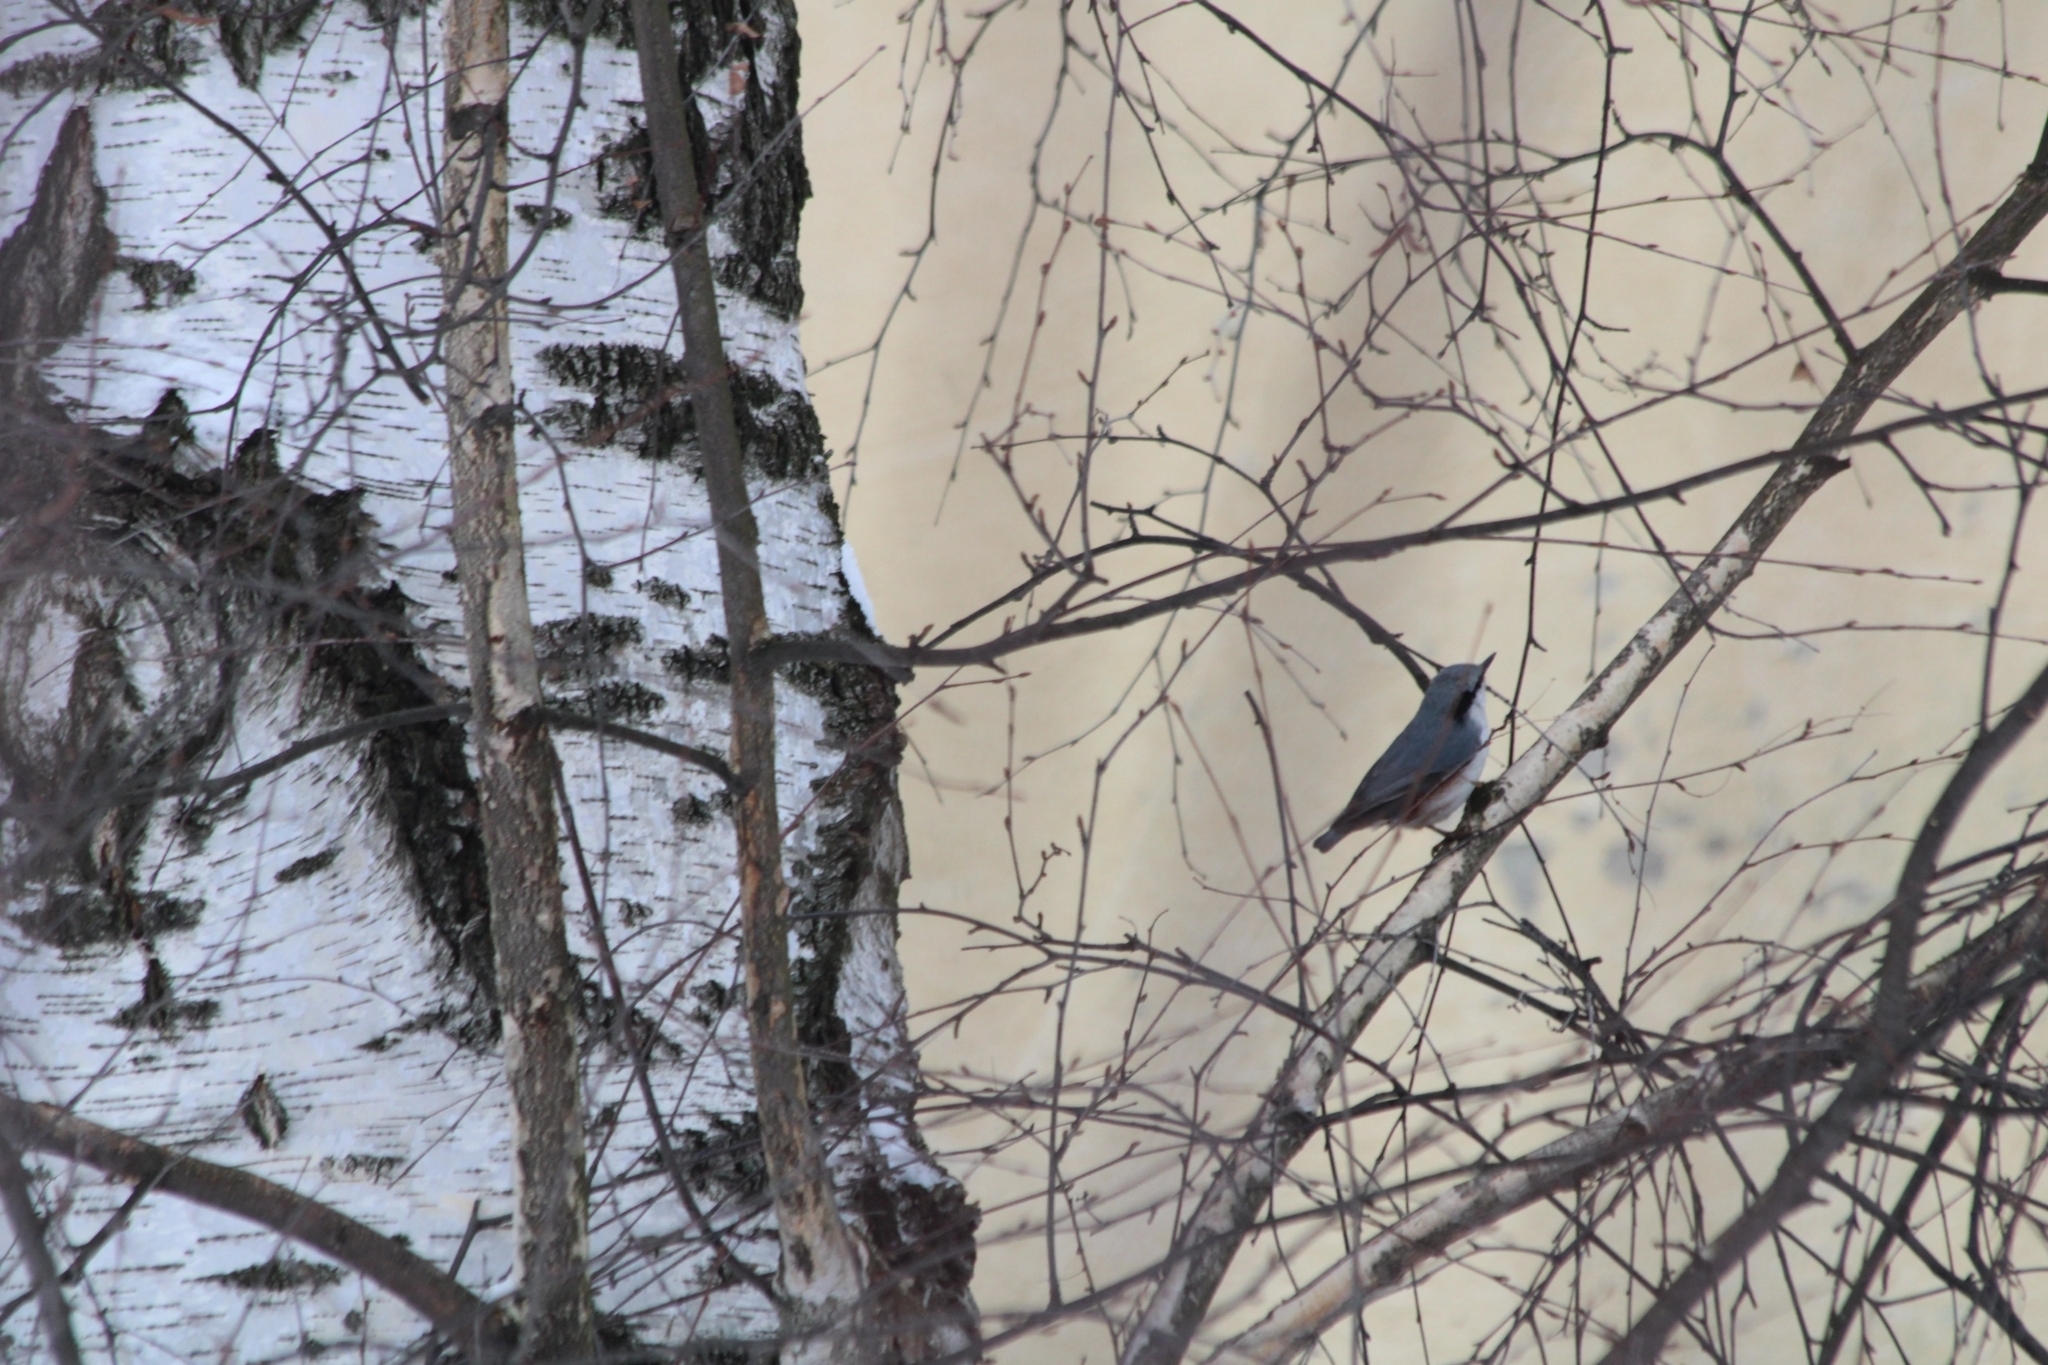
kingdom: Animalia
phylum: Chordata
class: Aves
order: Passeriformes
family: Sittidae
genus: Sitta
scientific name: Sitta europaea
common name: Eurasian nuthatch
